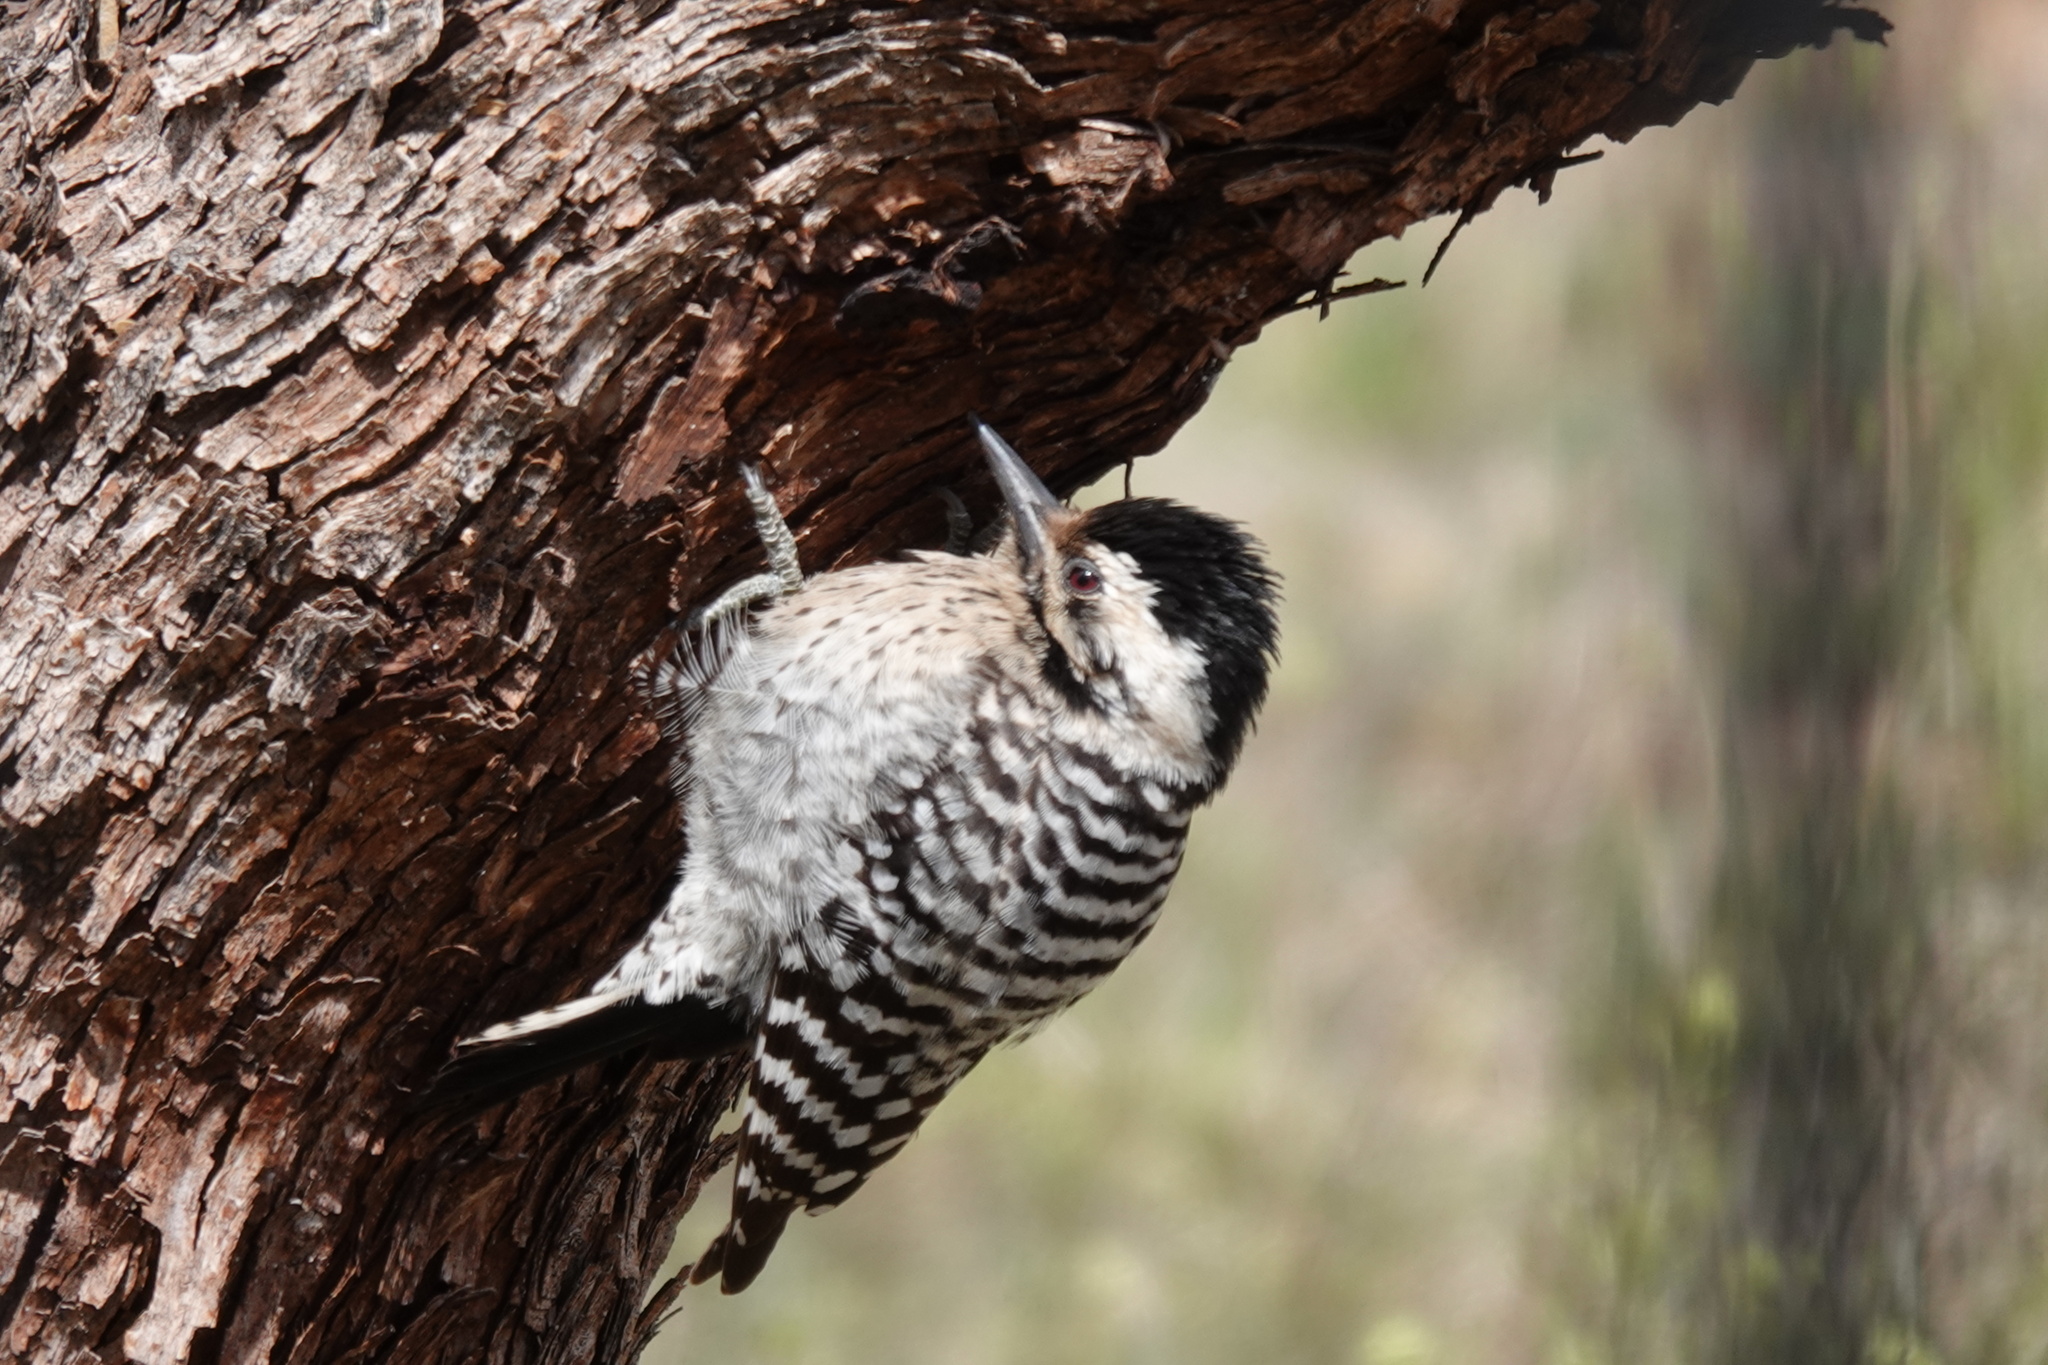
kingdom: Animalia
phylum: Chordata
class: Aves
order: Piciformes
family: Picidae
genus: Dryobates
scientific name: Dryobates scalaris
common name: Ladder-backed woodpecker
